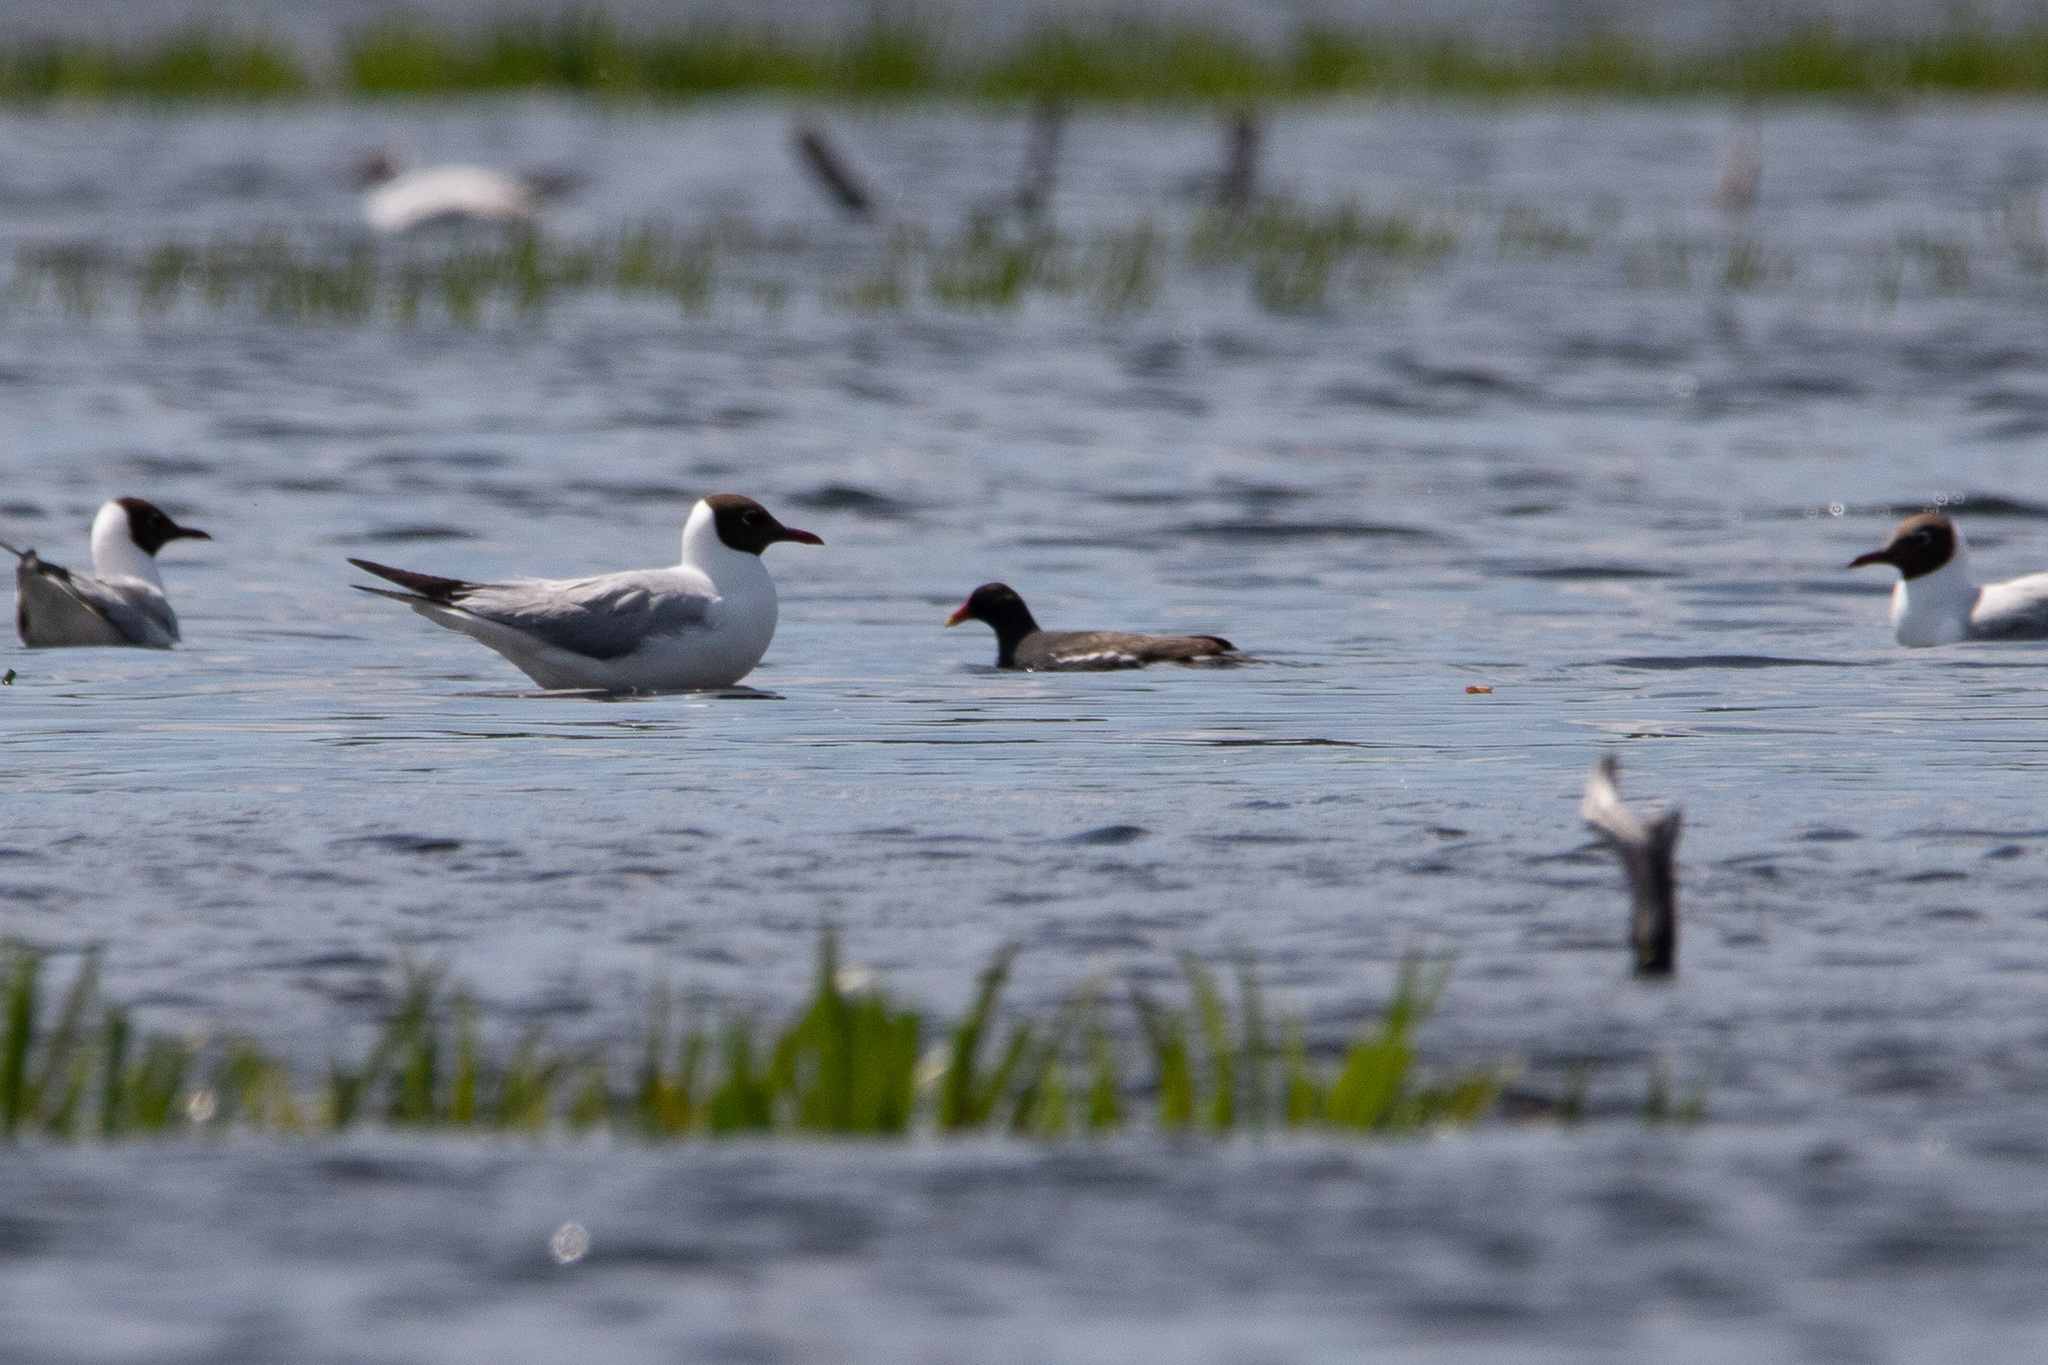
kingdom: Animalia
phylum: Chordata
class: Aves
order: Gruiformes
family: Rallidae
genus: Gallinula
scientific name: Gallinula chloropus
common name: Common moorhen
